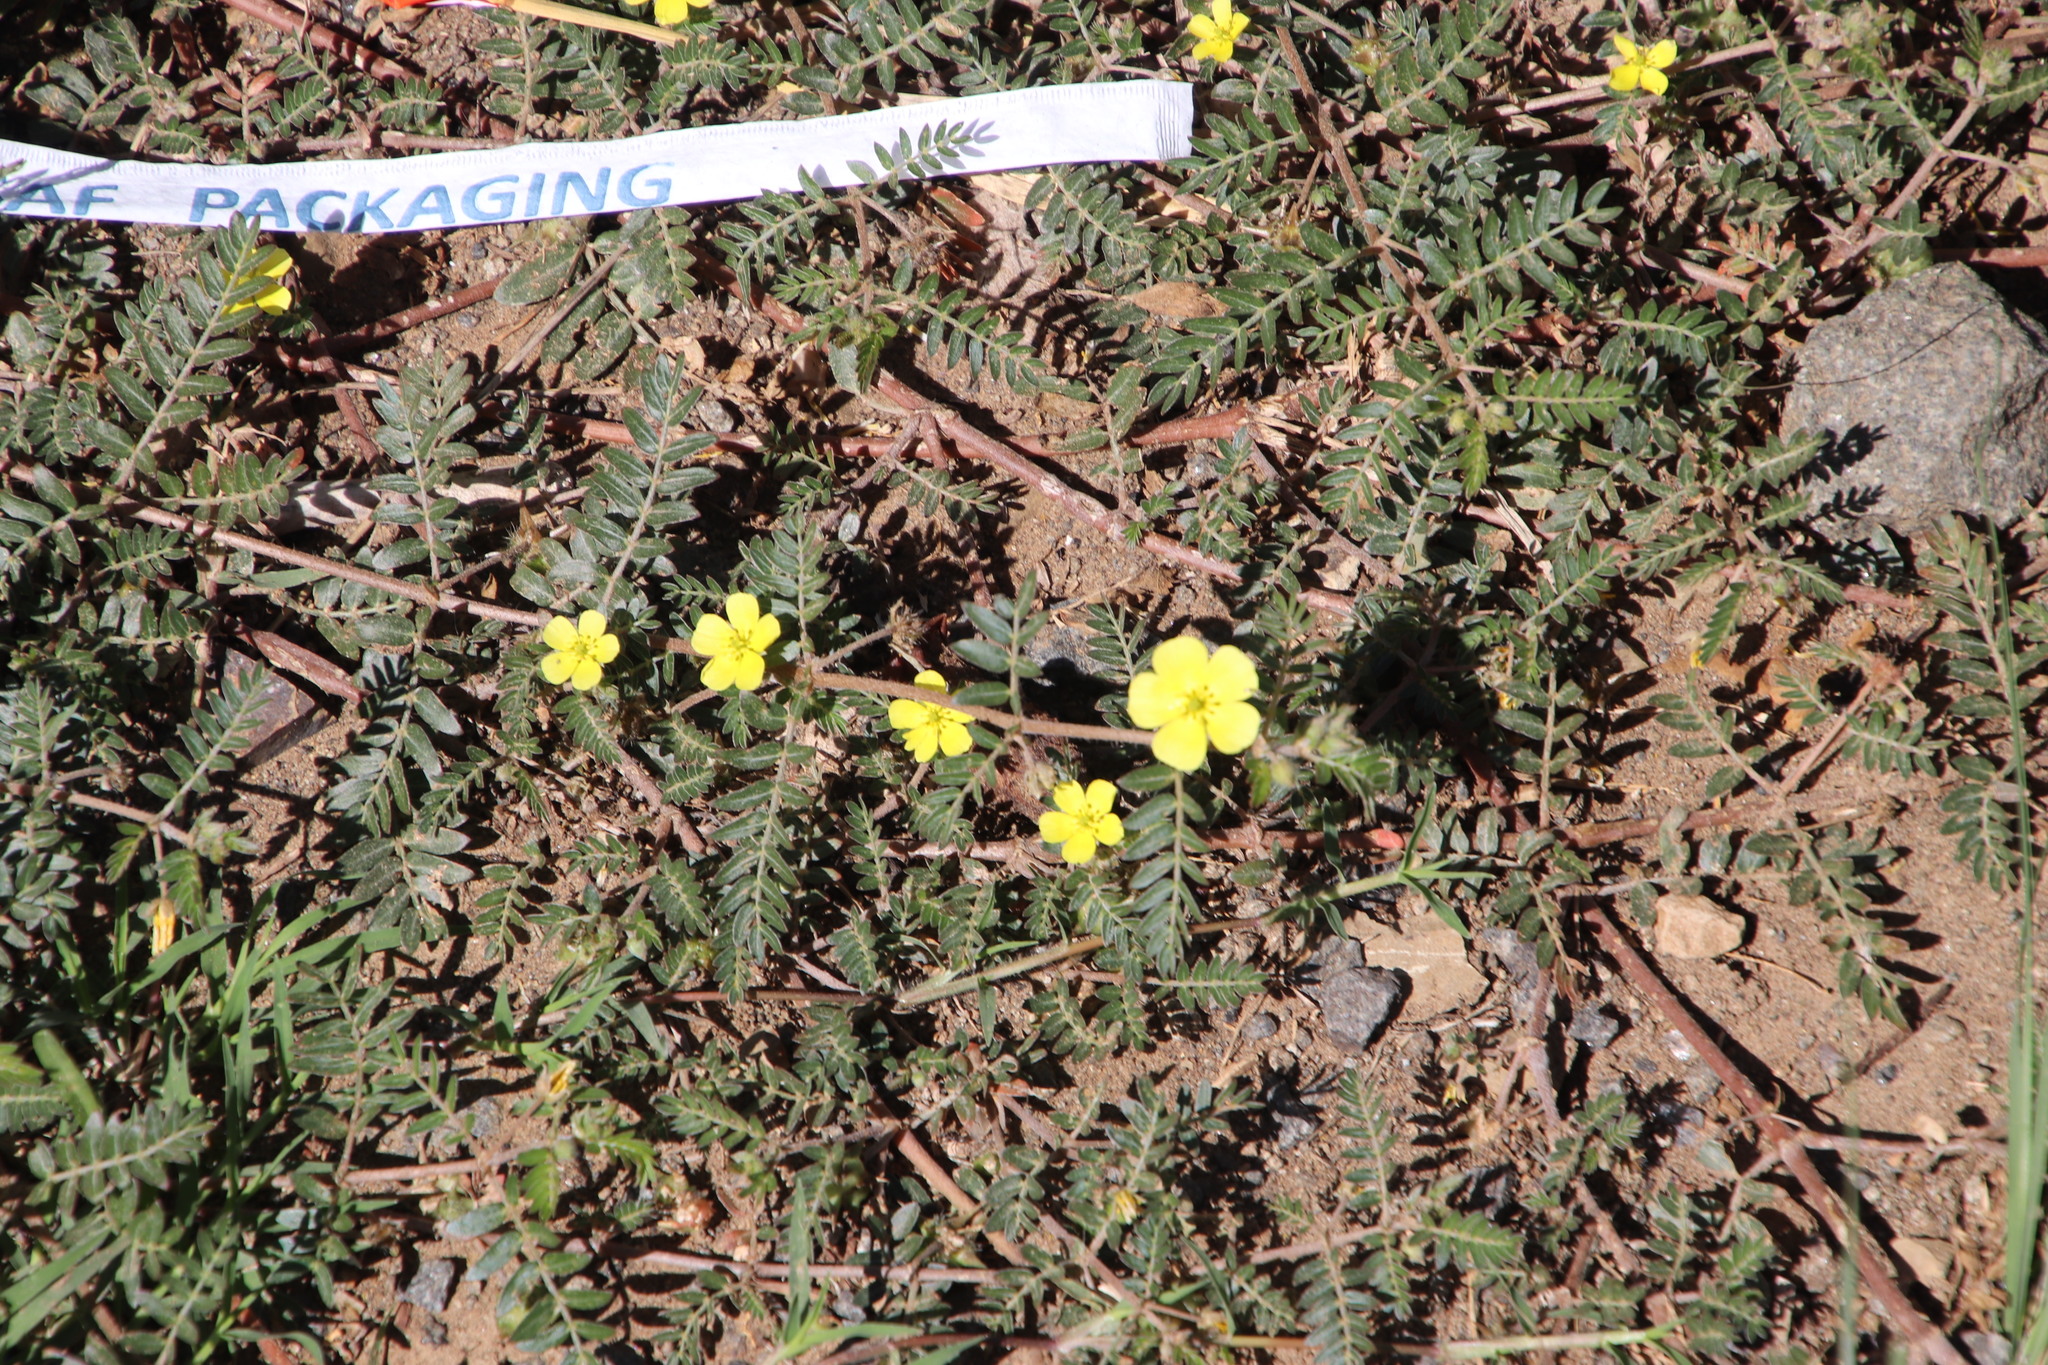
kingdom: Plantae
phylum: Tracheophyta
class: Magnoliopsida
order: Zygophyllales
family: Zygophyllaceae
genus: Tribulus
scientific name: Tribulus terrestris
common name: Puncturevine
